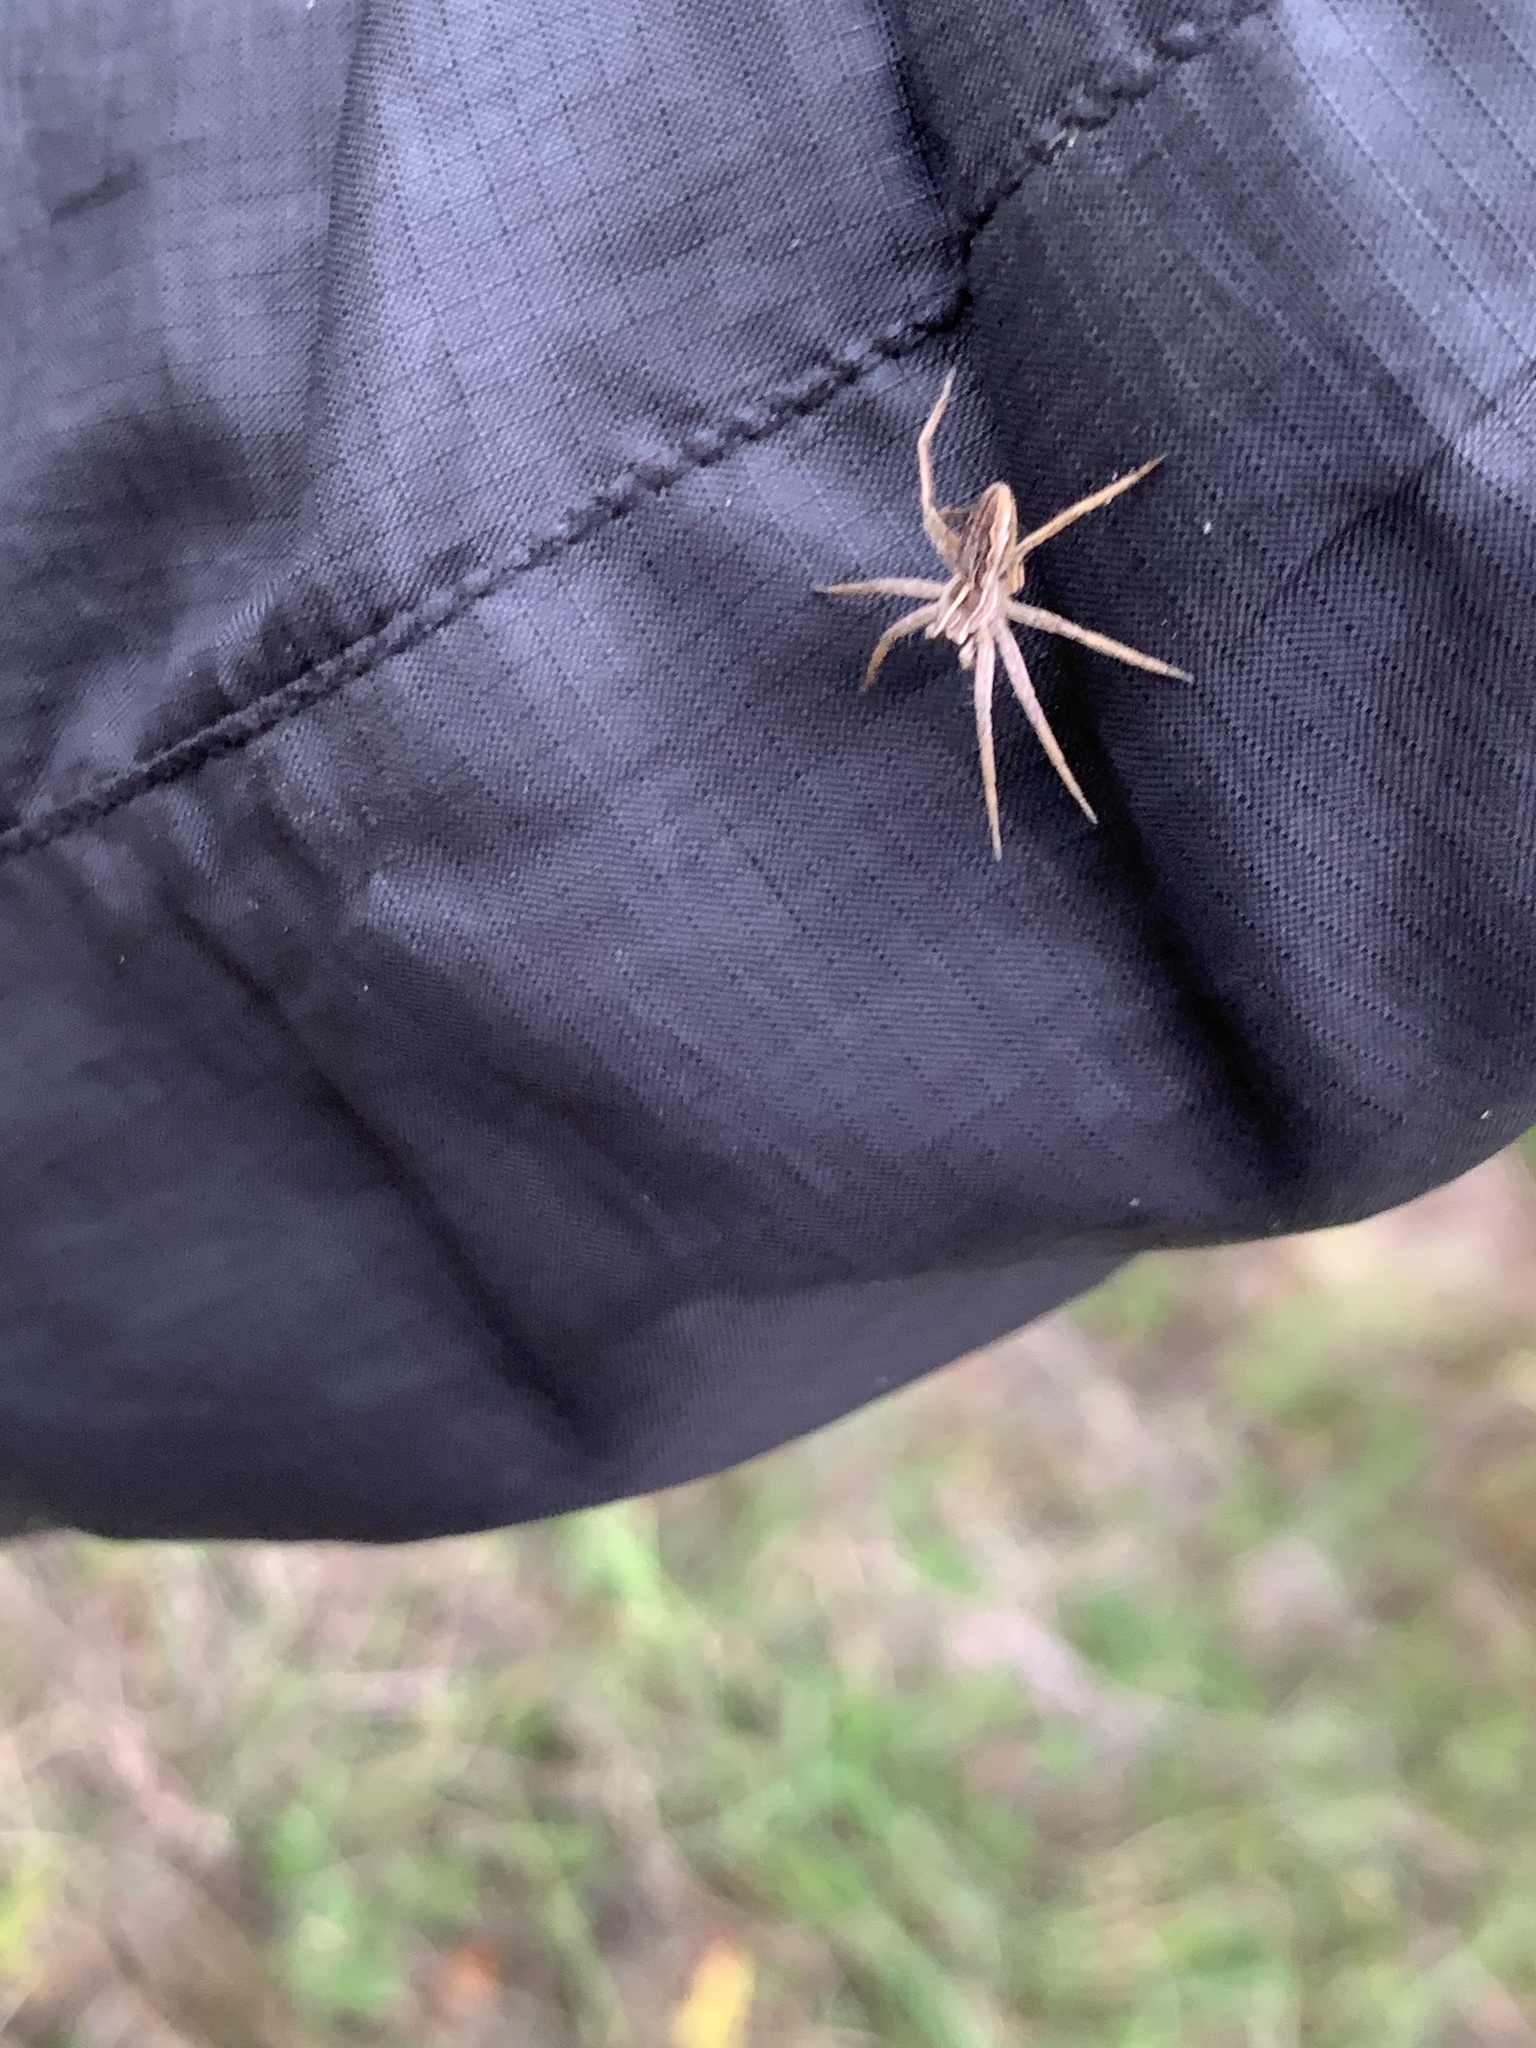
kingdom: Animalia
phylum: Arthropoda
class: Arachnida
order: Araneae
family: Pisauridae
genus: Pisaura
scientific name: Pisaura mirabilis
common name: Tent spider
